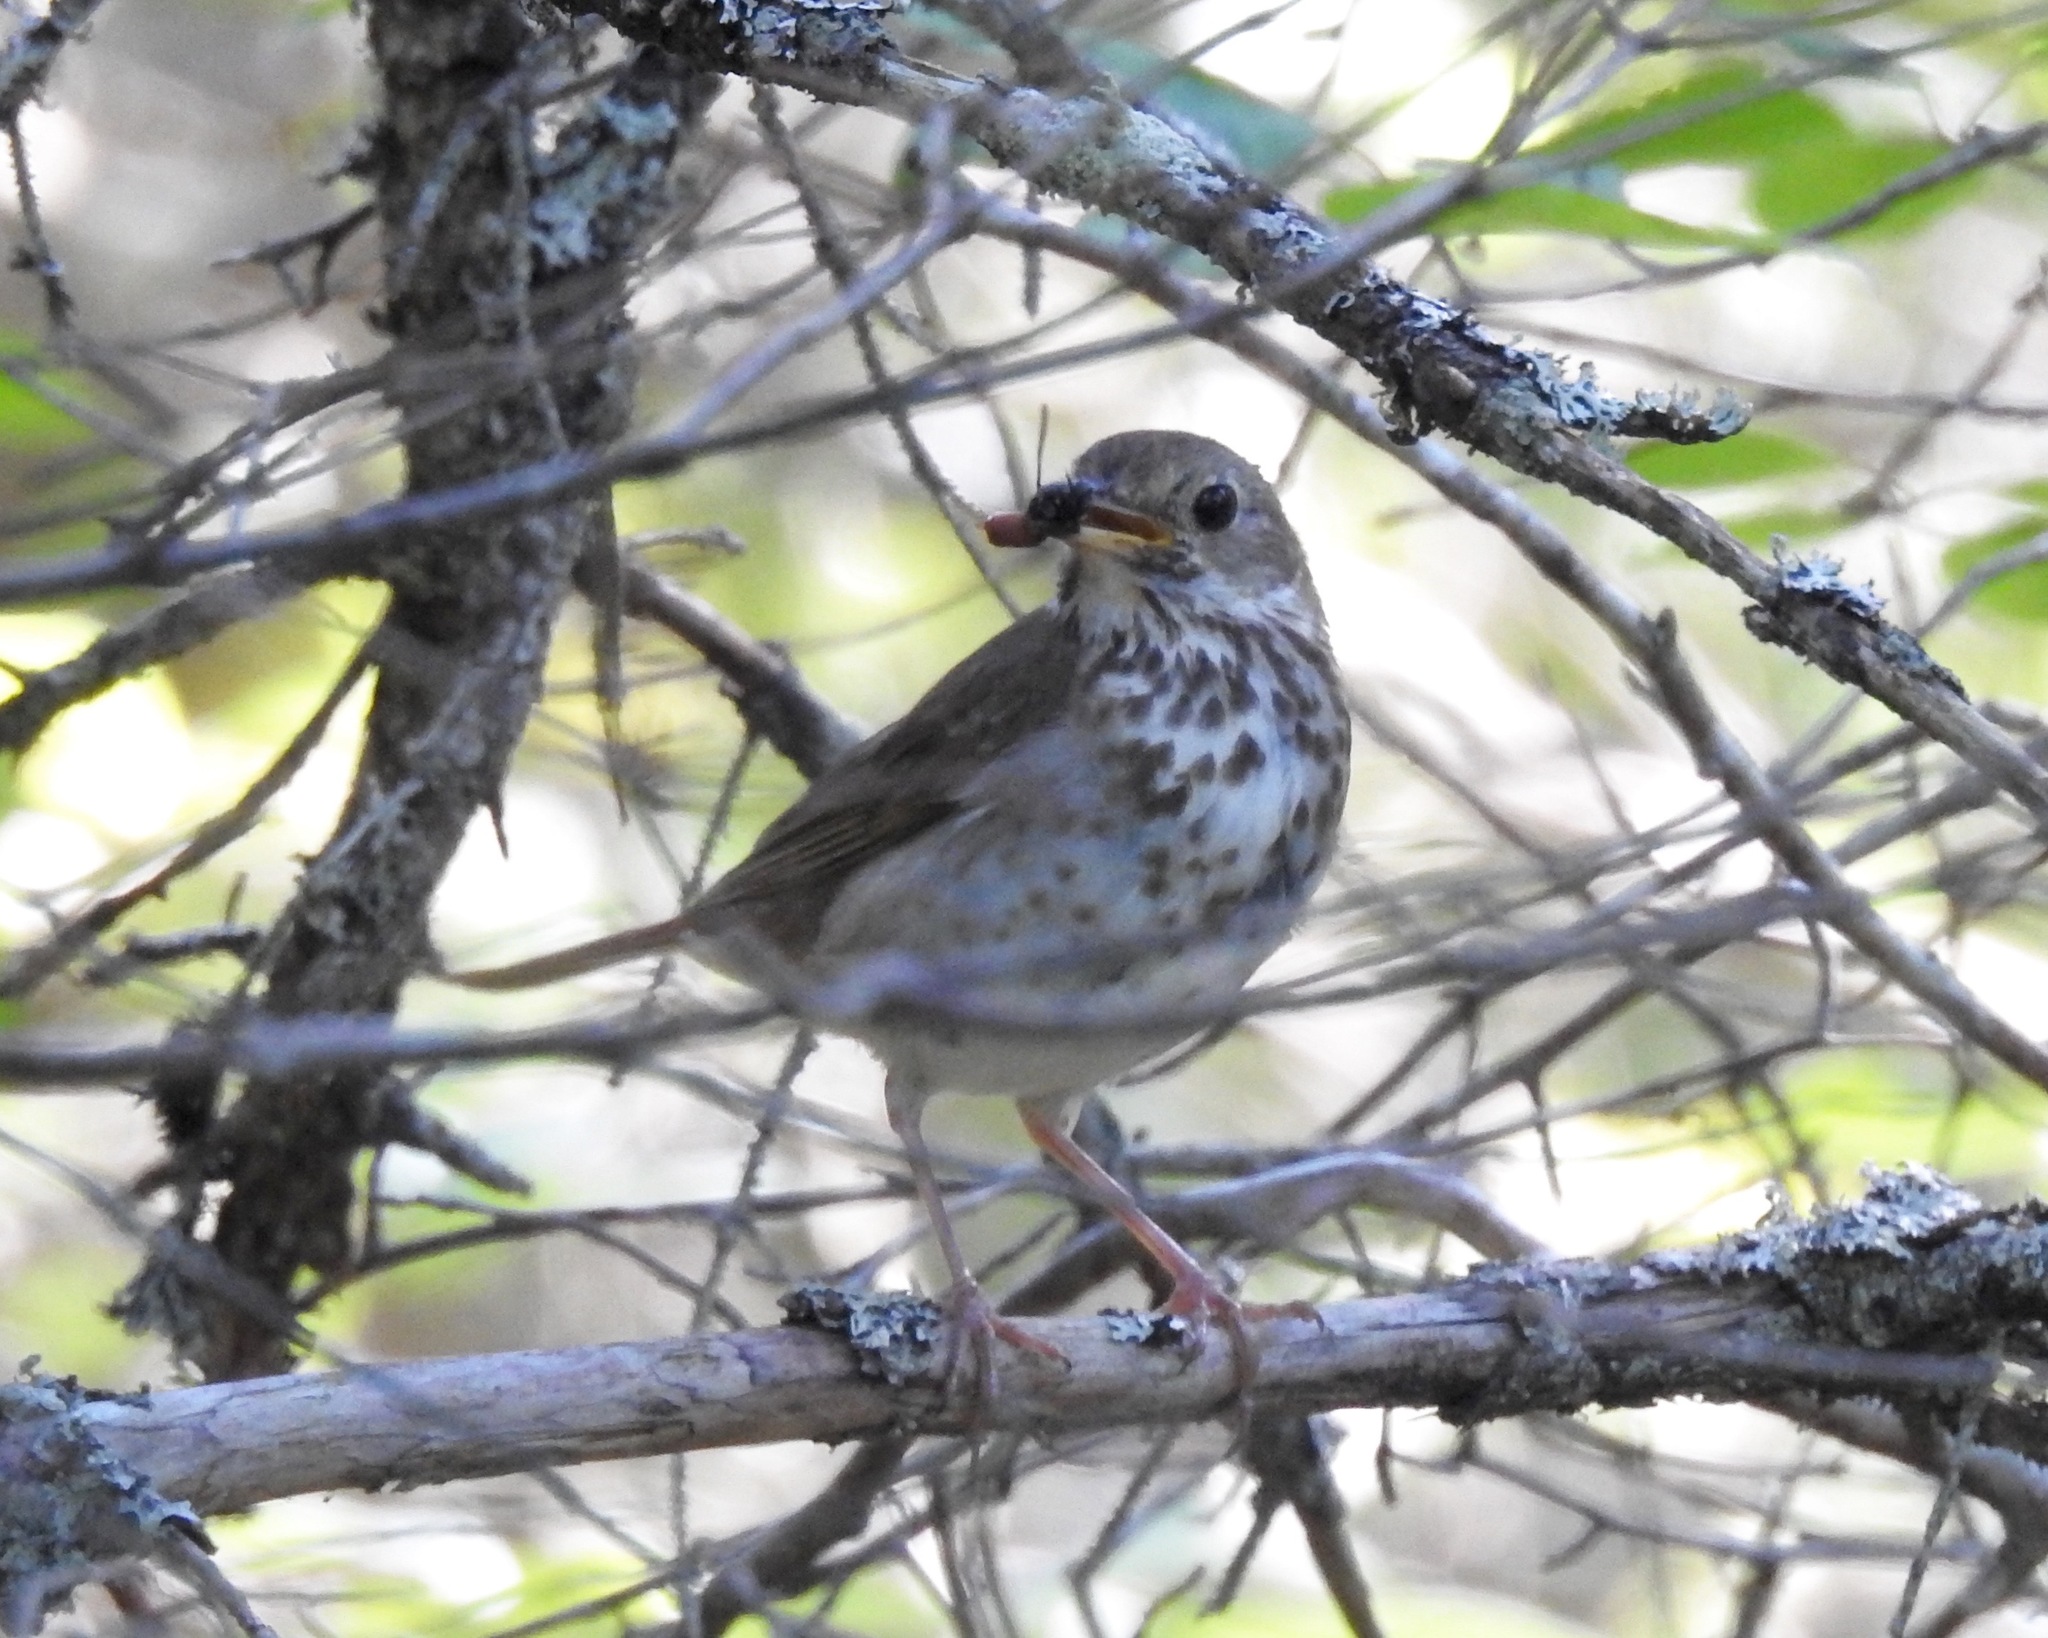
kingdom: Animalia
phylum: Chordata
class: Aves
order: Passeriformes
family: Turdidae
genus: Catharus
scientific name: Catharus guttatus
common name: Hermit thrush
